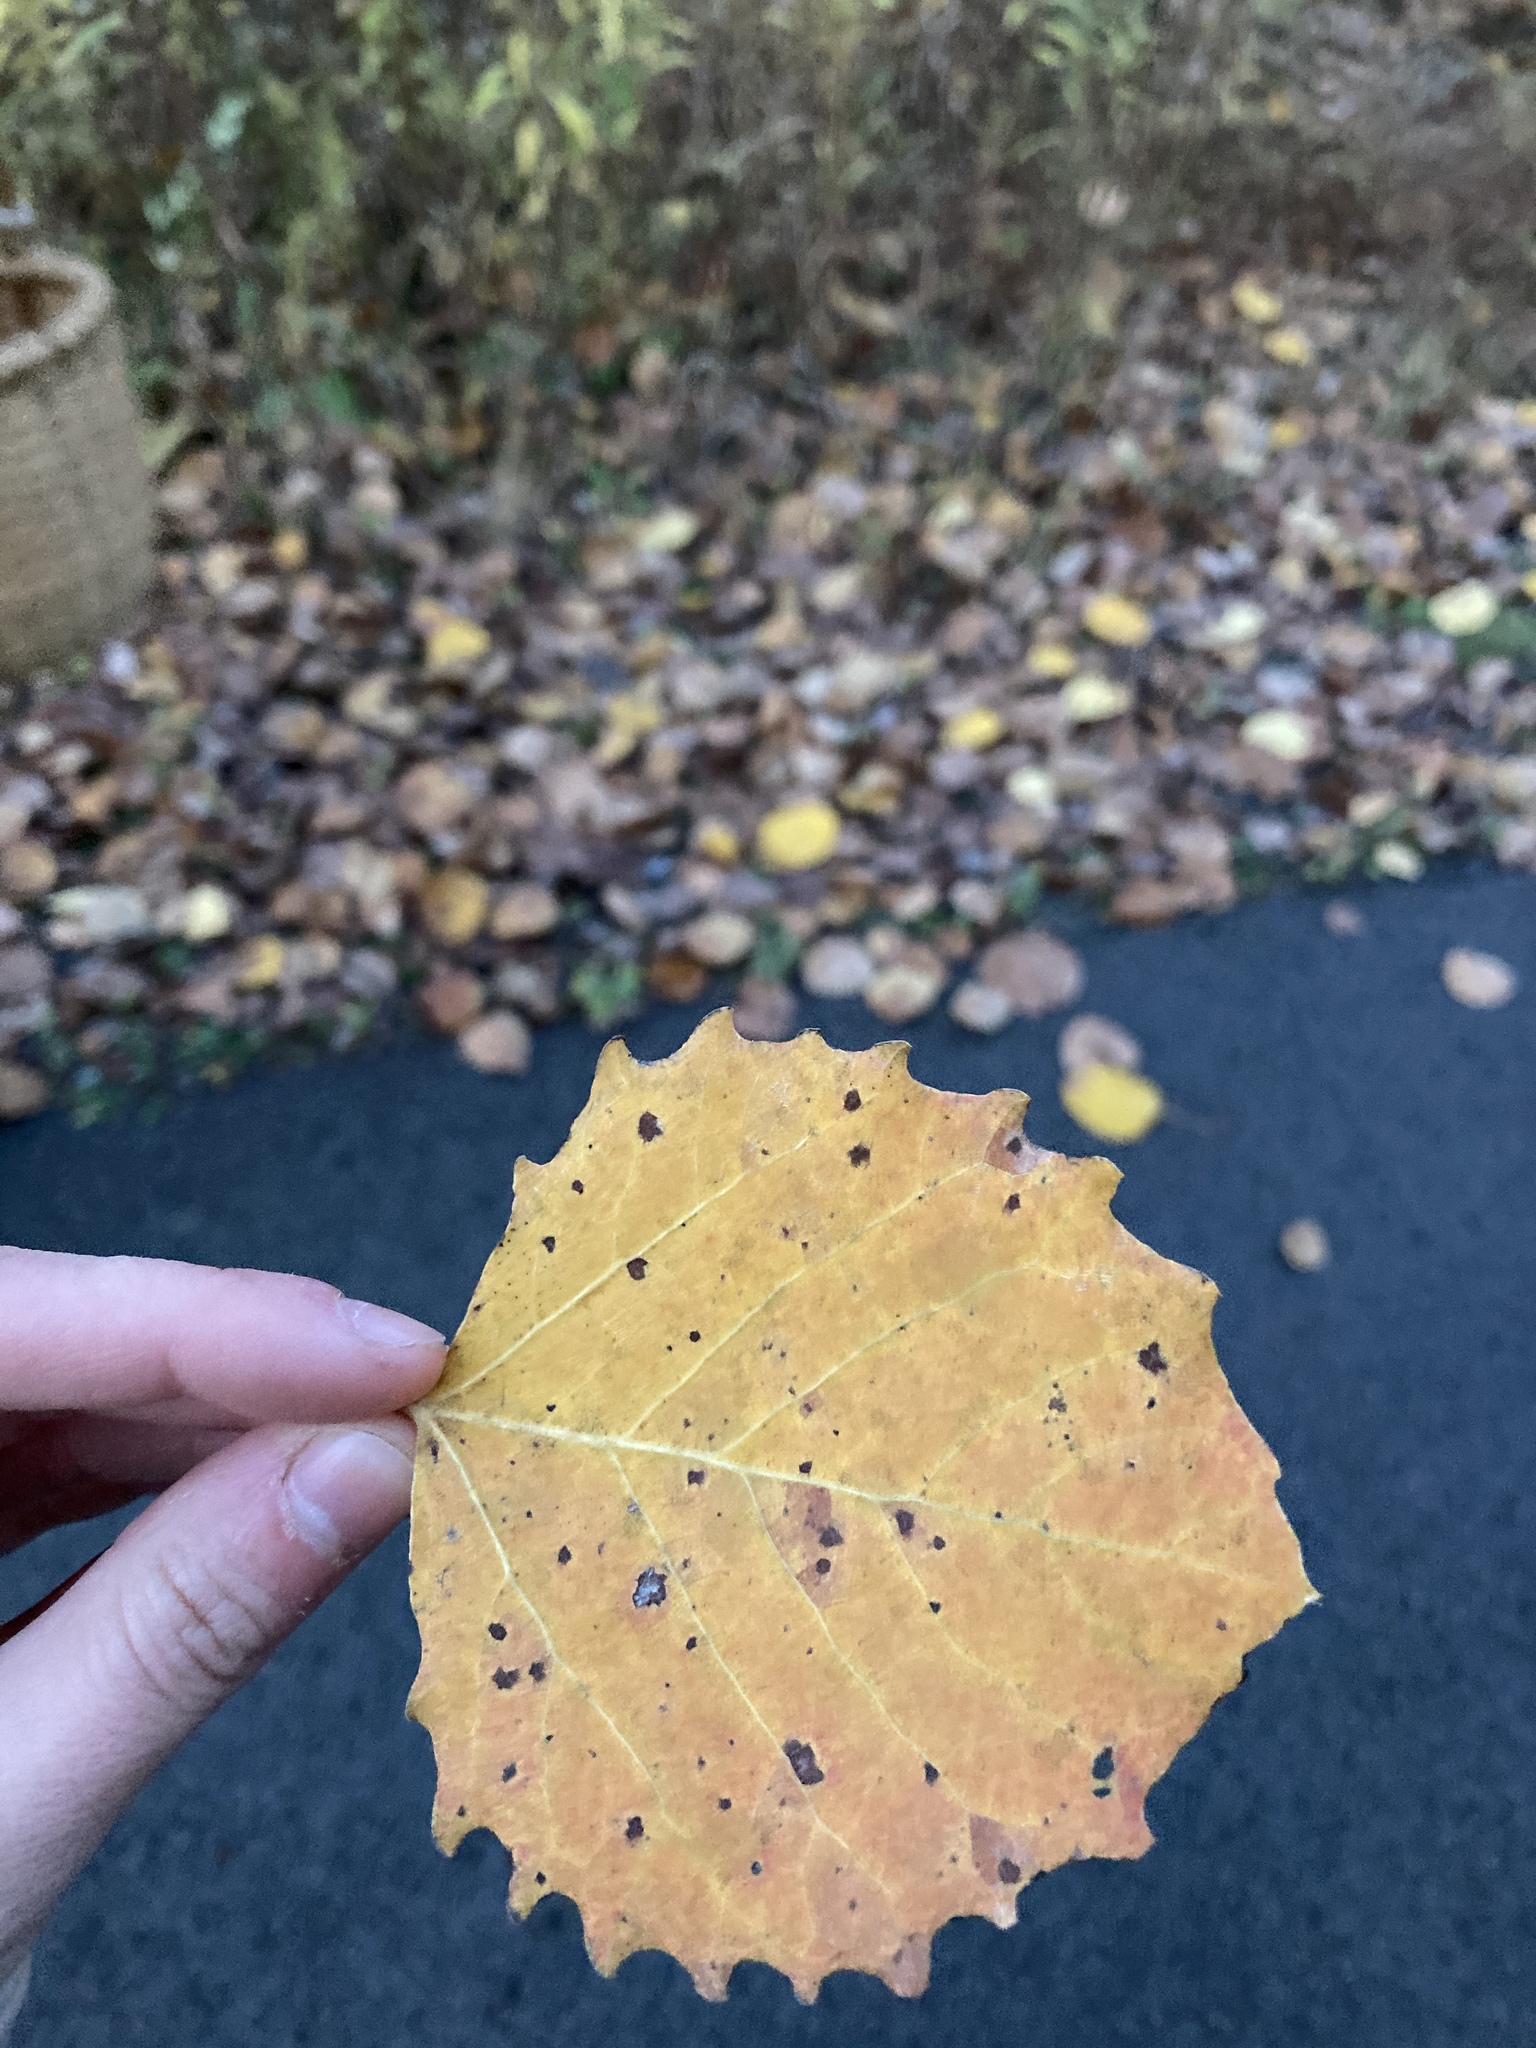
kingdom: Plantae
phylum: Tracheophyta
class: Magnoliopsida
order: Malpighiales
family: Salicaceae
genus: Populus
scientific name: Populus grandidentata
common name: Bigtooth aspen
